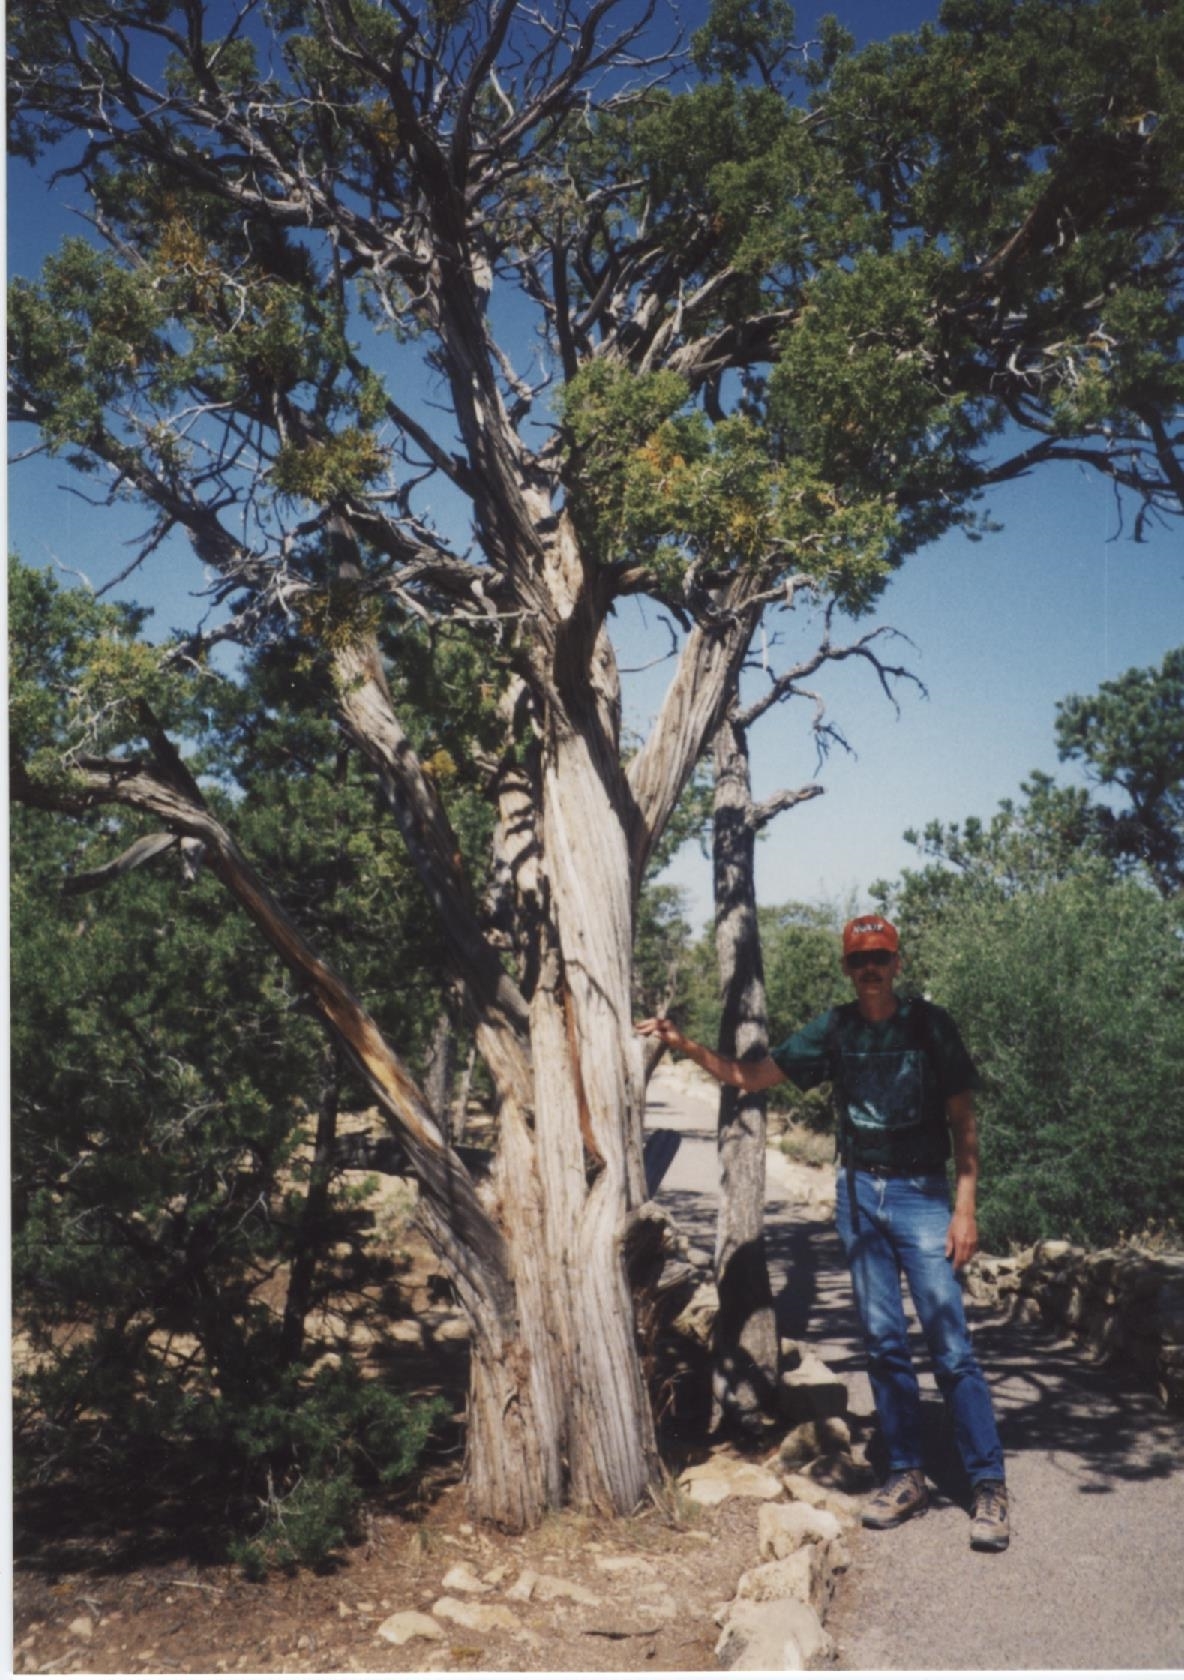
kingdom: Plantae
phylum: Tracheophyta
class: Pinopsida
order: Pinales
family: Cupressaceae
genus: Juniperus
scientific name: Juniperus osteosperma
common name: Utah juniper
